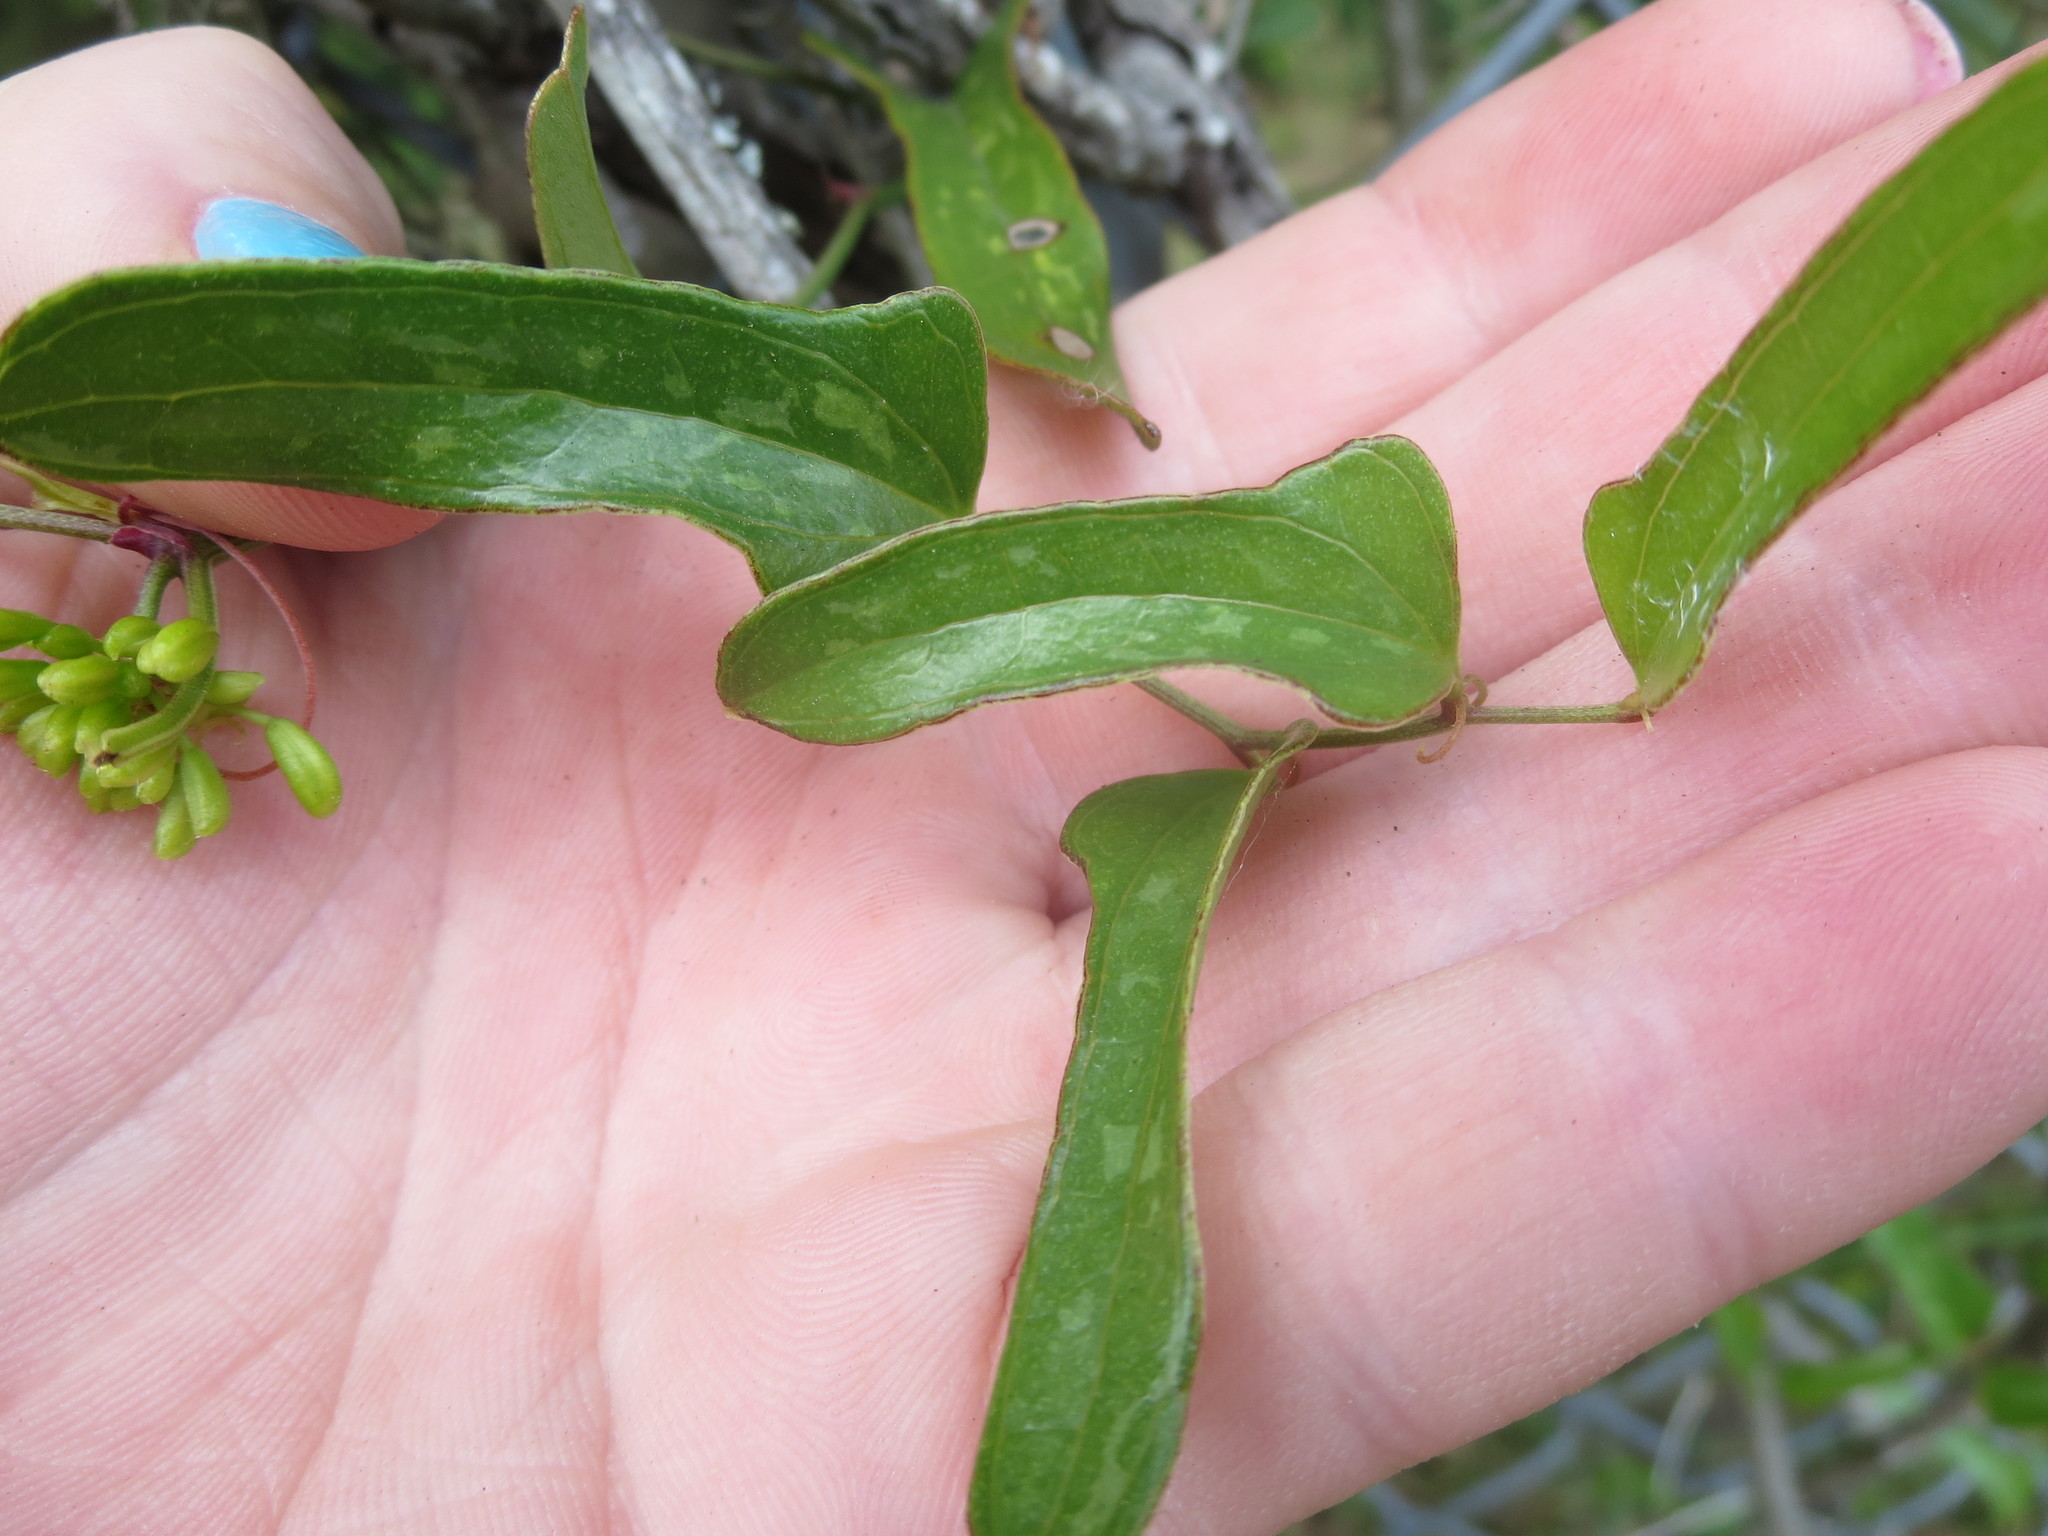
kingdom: Plantae
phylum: Tracheophyta
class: Liliopsida
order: Liliales
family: Smilacaceae
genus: Smilax
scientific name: Smilax auriculata
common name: Wild bamboo
